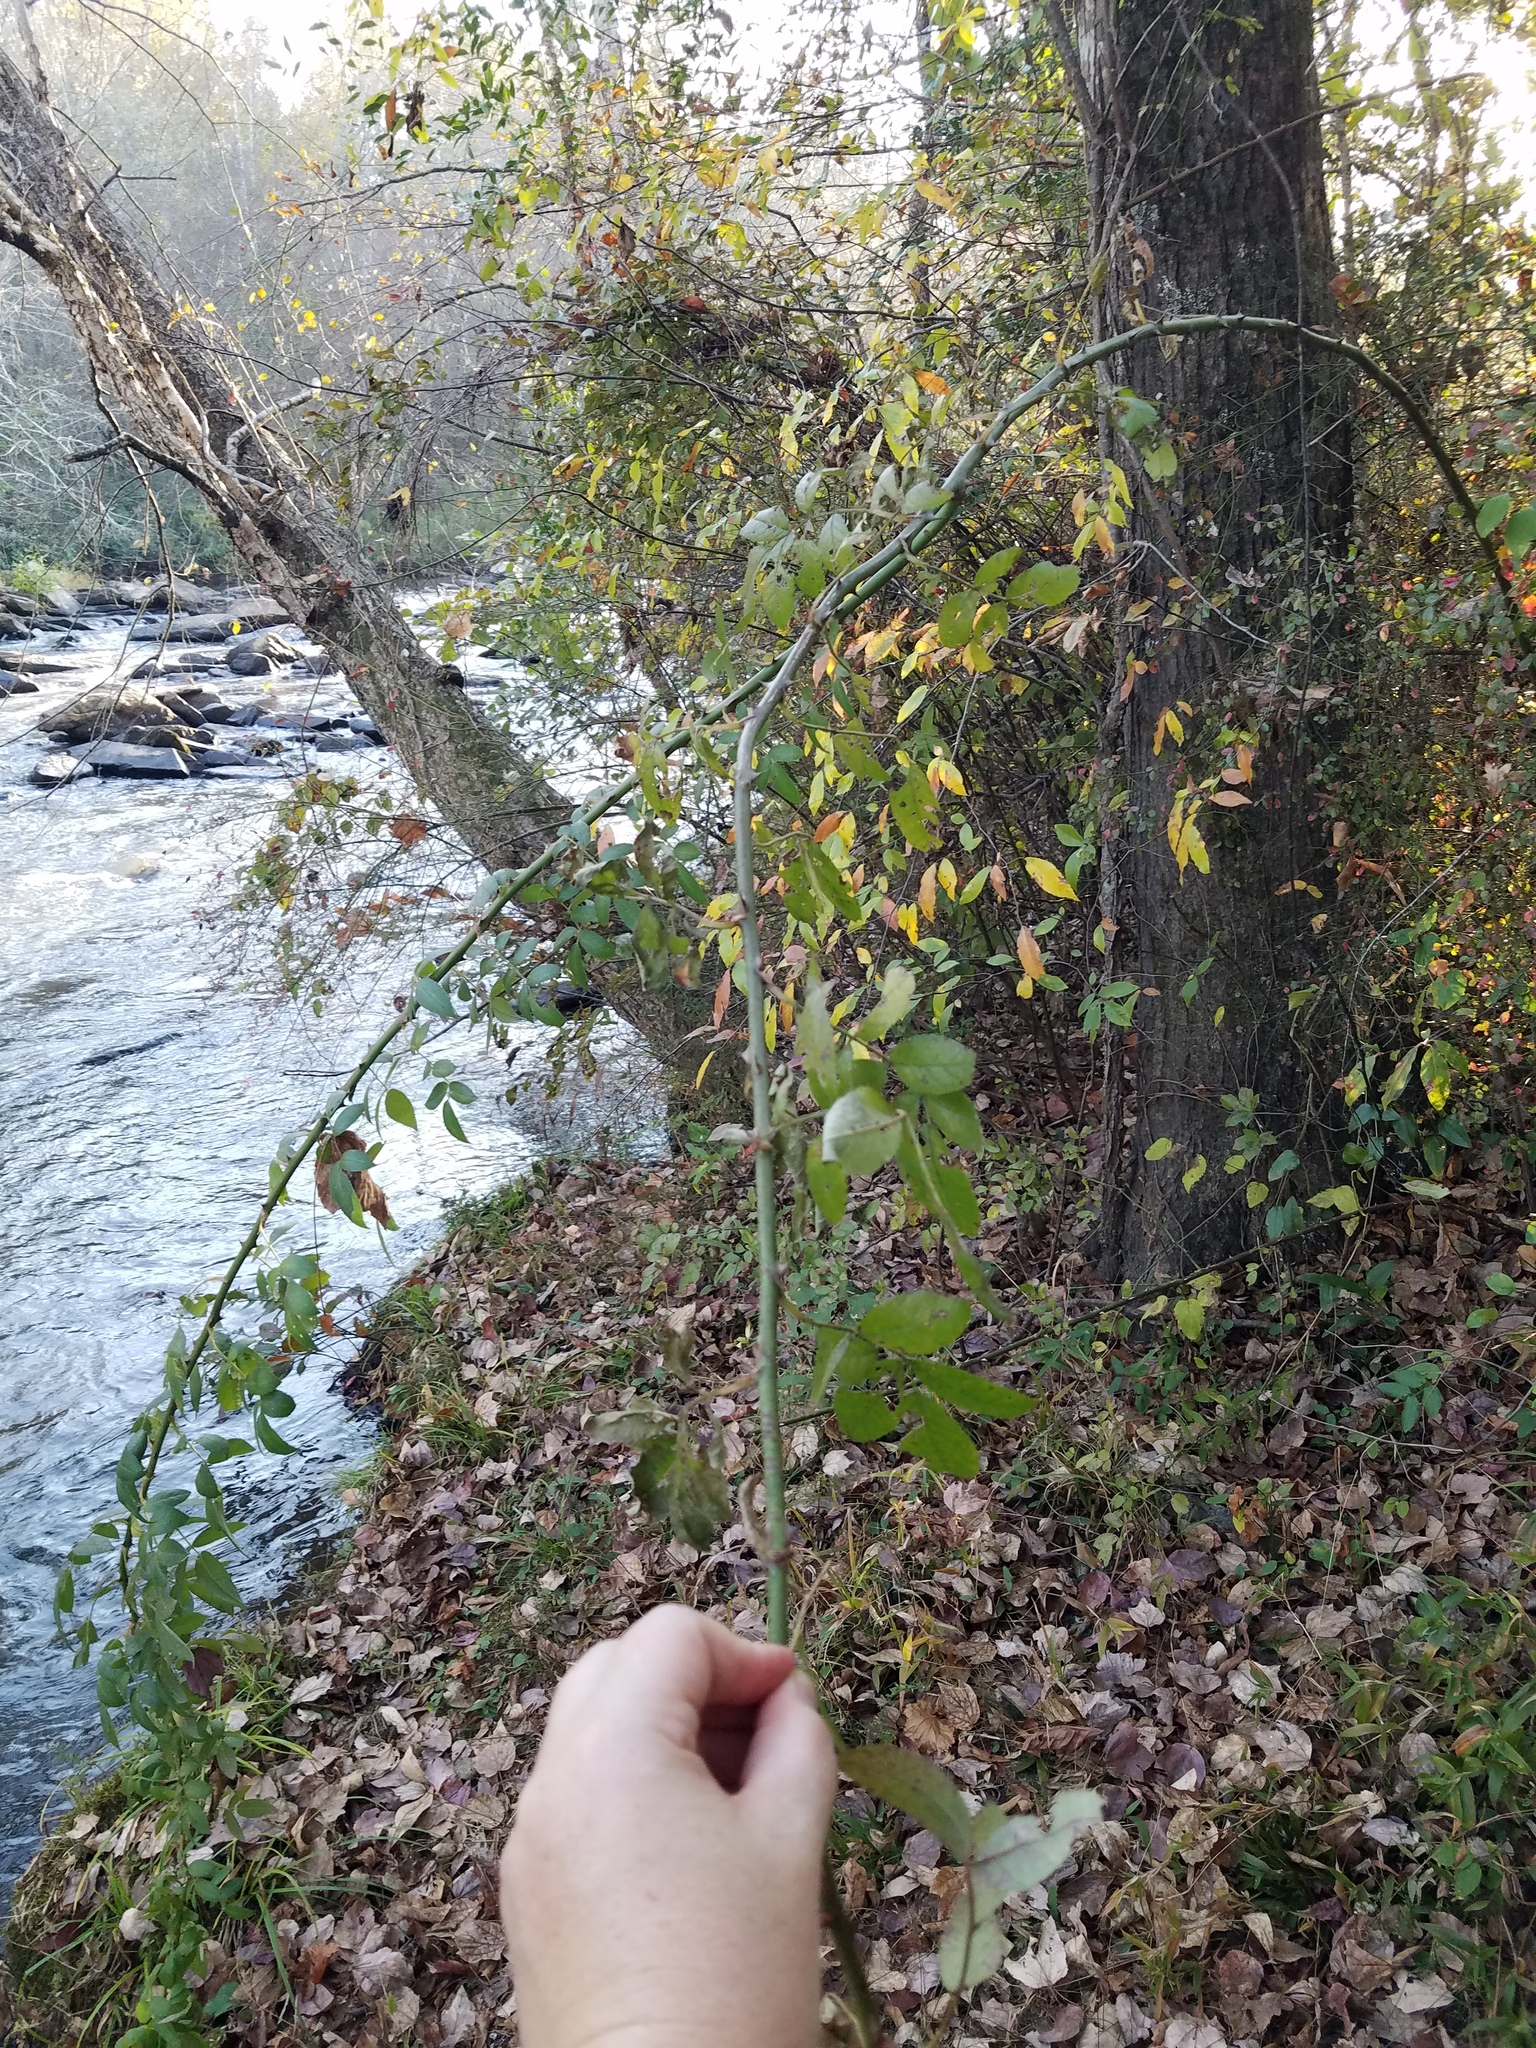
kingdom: Plantae
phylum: Tracheophyta
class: Magnoliopsida
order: Rosales
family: Rosaceae
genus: Rosa
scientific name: Rosa multiflora
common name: Multiflora rose
